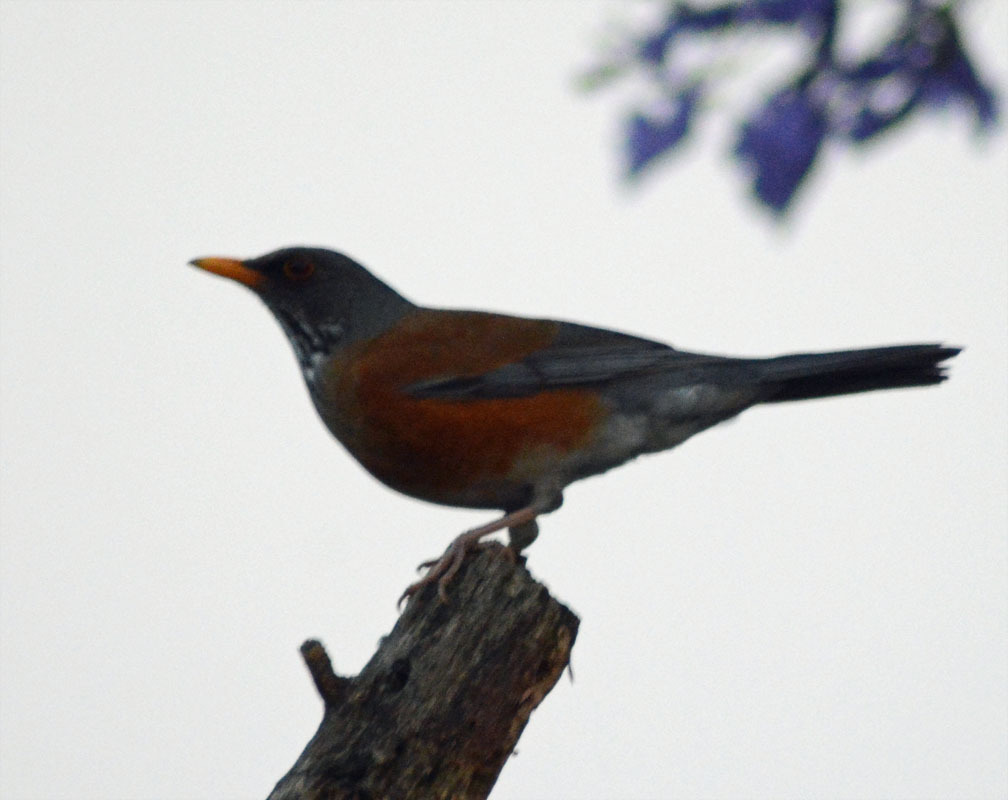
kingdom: Animalia
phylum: Chordata
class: Aves
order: Passeriformes
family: Turdidae
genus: Turdus
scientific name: Turdus rufopalliatus
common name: Rufous-backed robin
